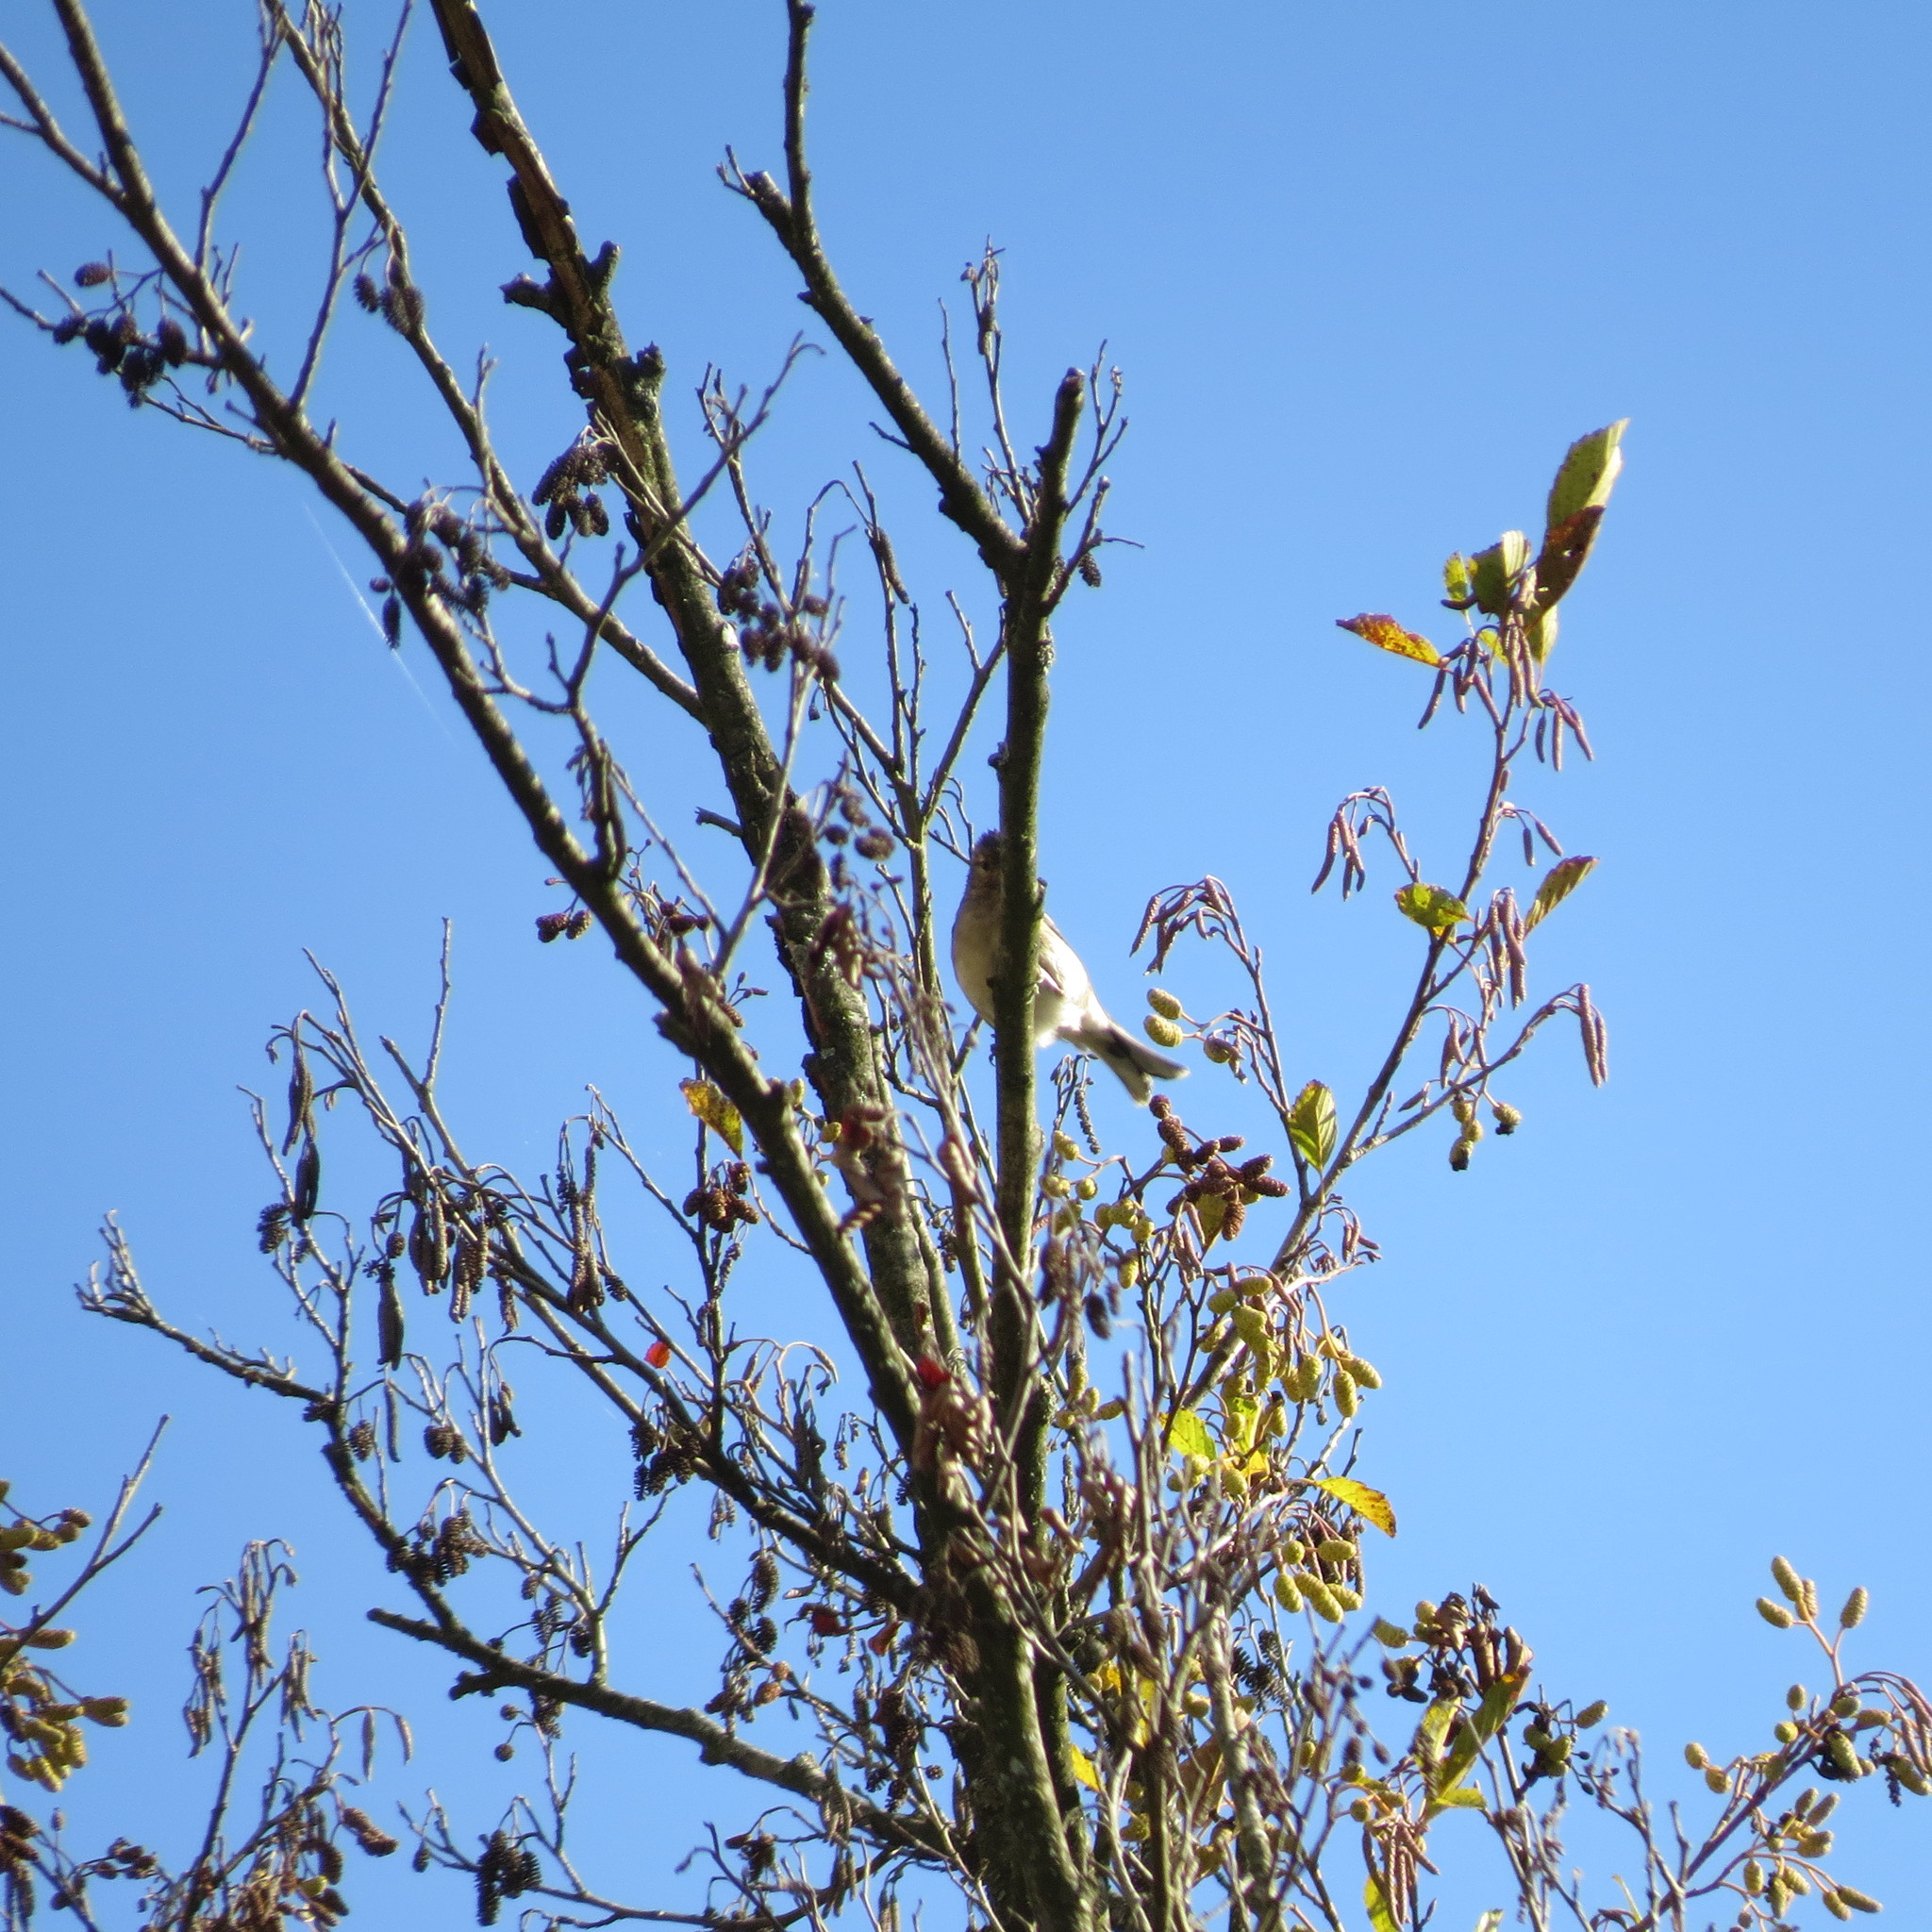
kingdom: Animalia
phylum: Chordata
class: Aves
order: Passeriformes
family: Fringillidae
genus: Fringilla
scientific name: Fringilla coelebs
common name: Common chaffinch
